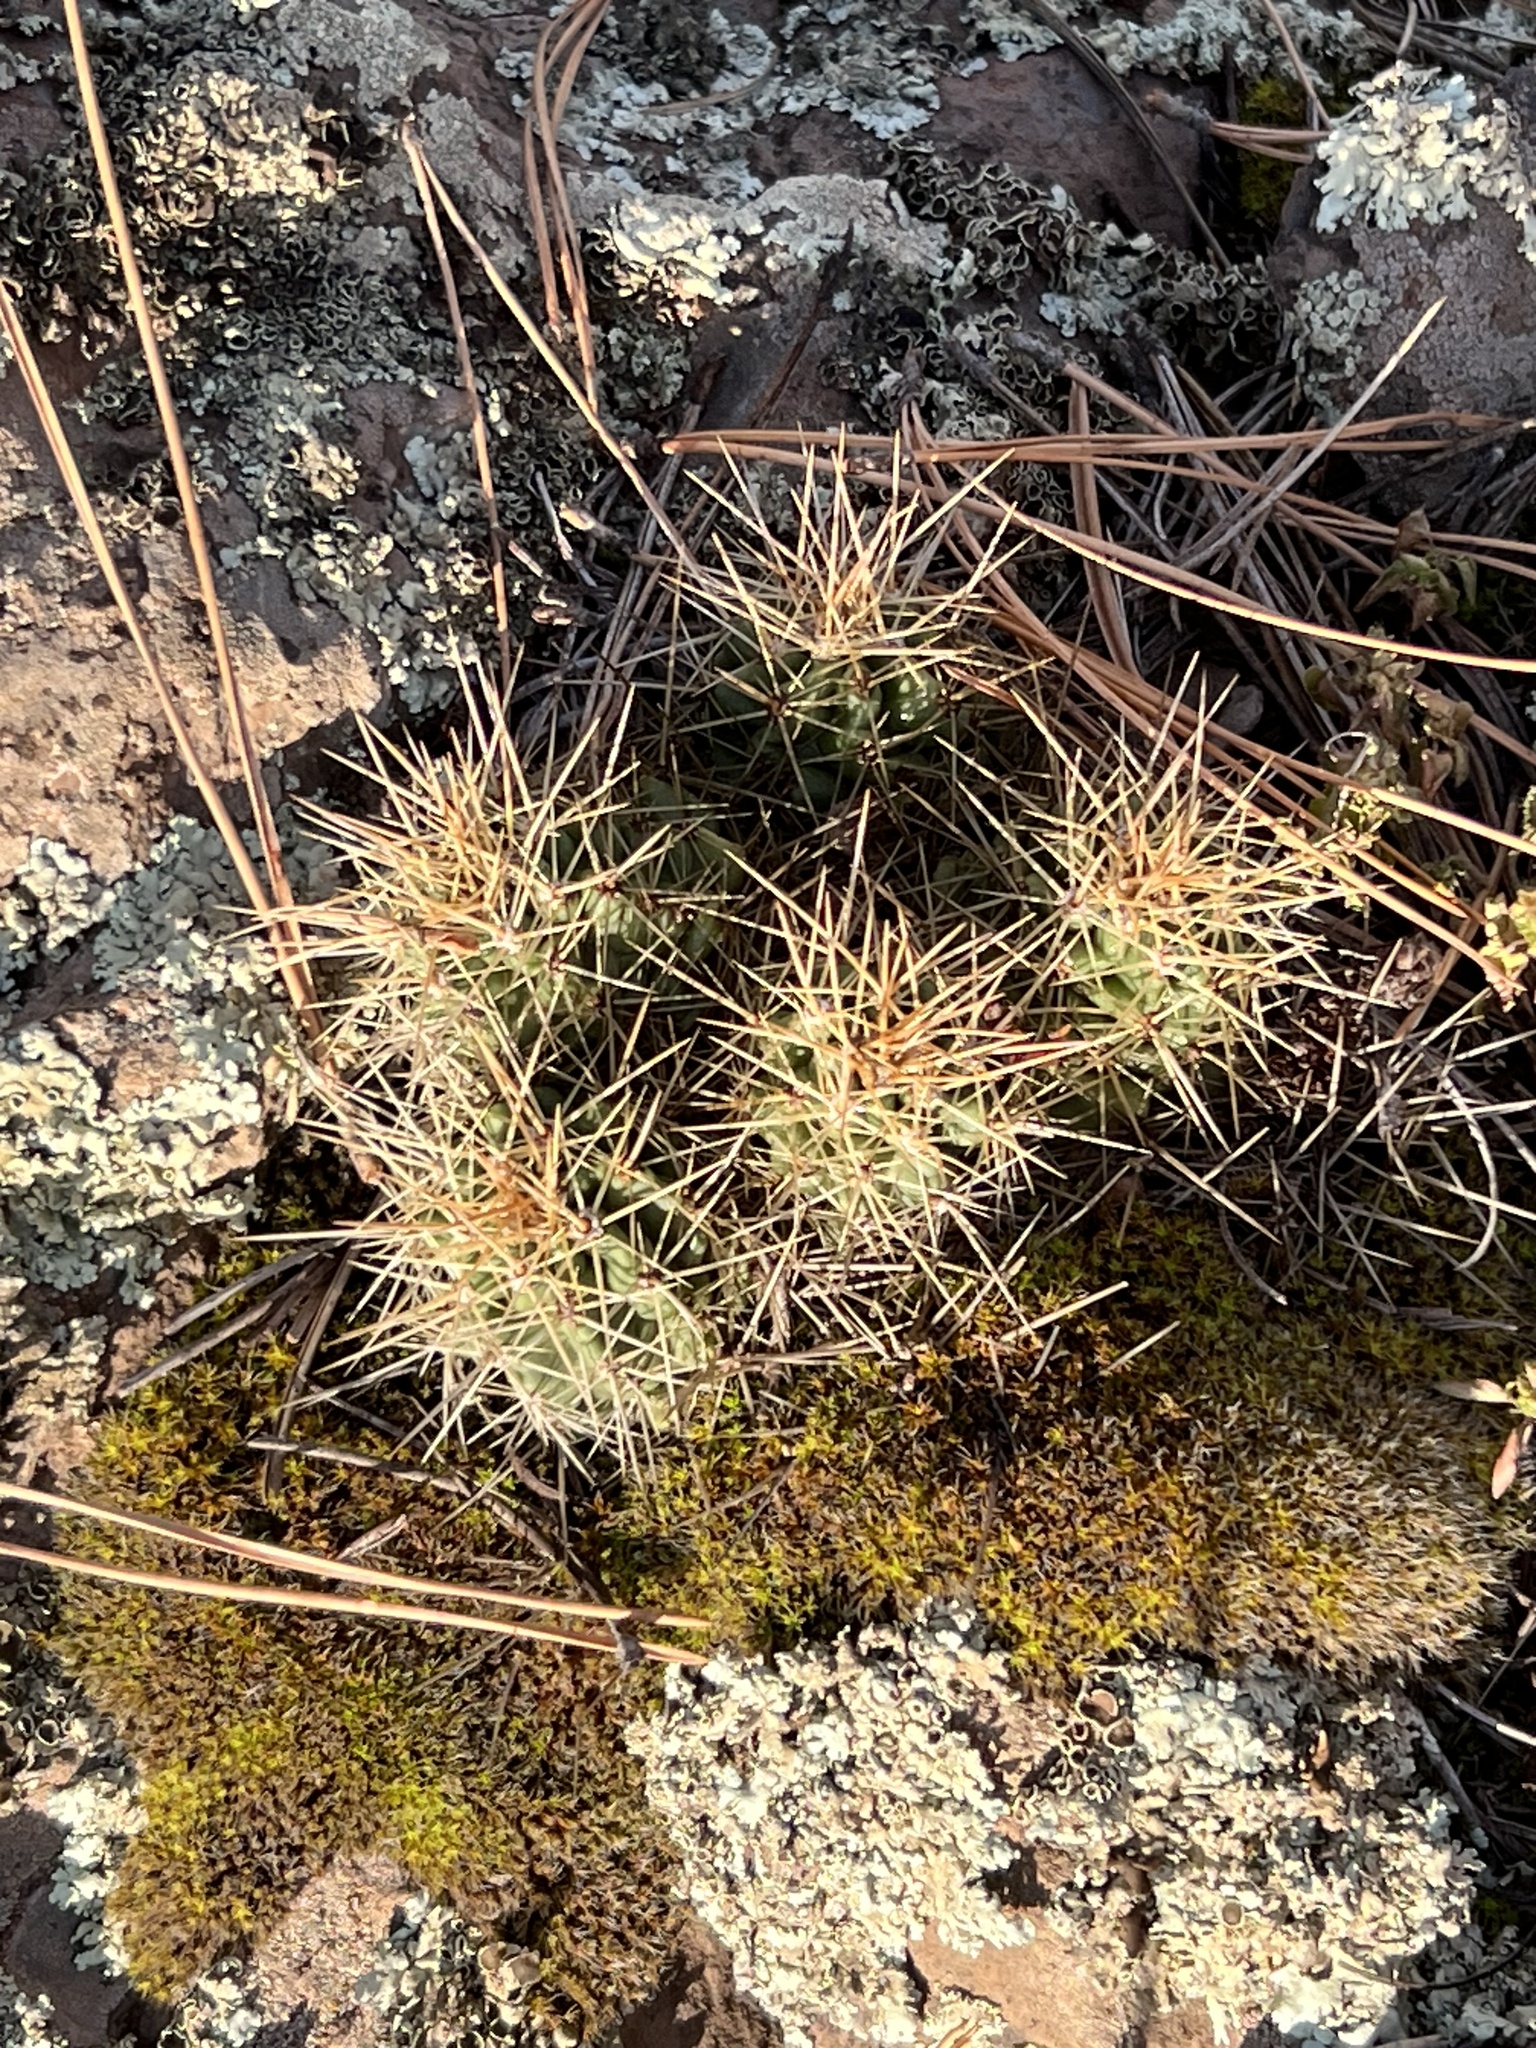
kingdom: Plantae
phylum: Tracheophyta
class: Magnoliopsida
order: Caryophyllales
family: Cactaceae
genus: Echinocereus
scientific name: Echinocereus bakeri
